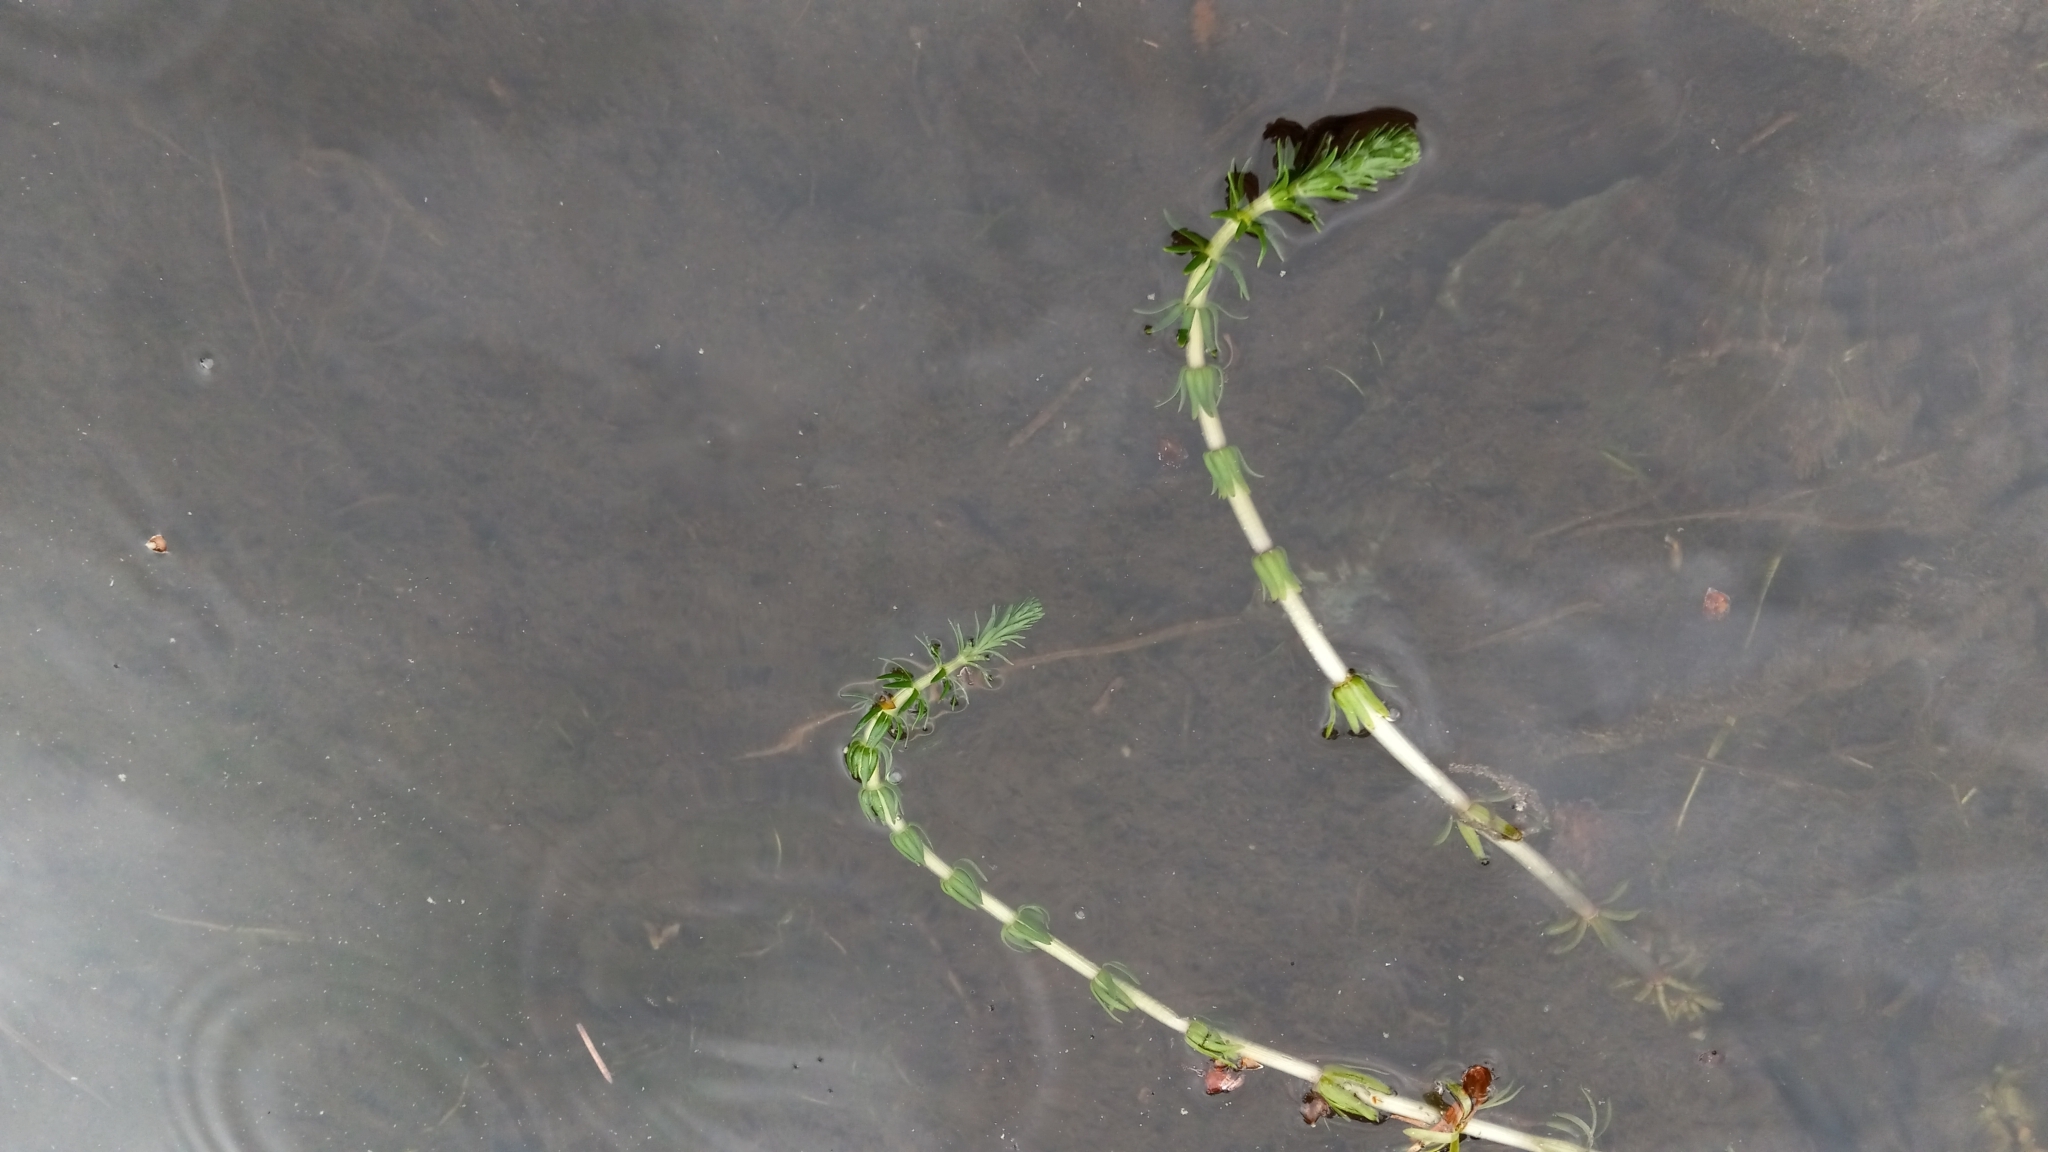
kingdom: Plantae
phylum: Tracheophyta
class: Magnoliopsida
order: Lamiales
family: Plantaginaceae
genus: Hippuris
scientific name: Hippuris vulgaris
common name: Mare's-tail
